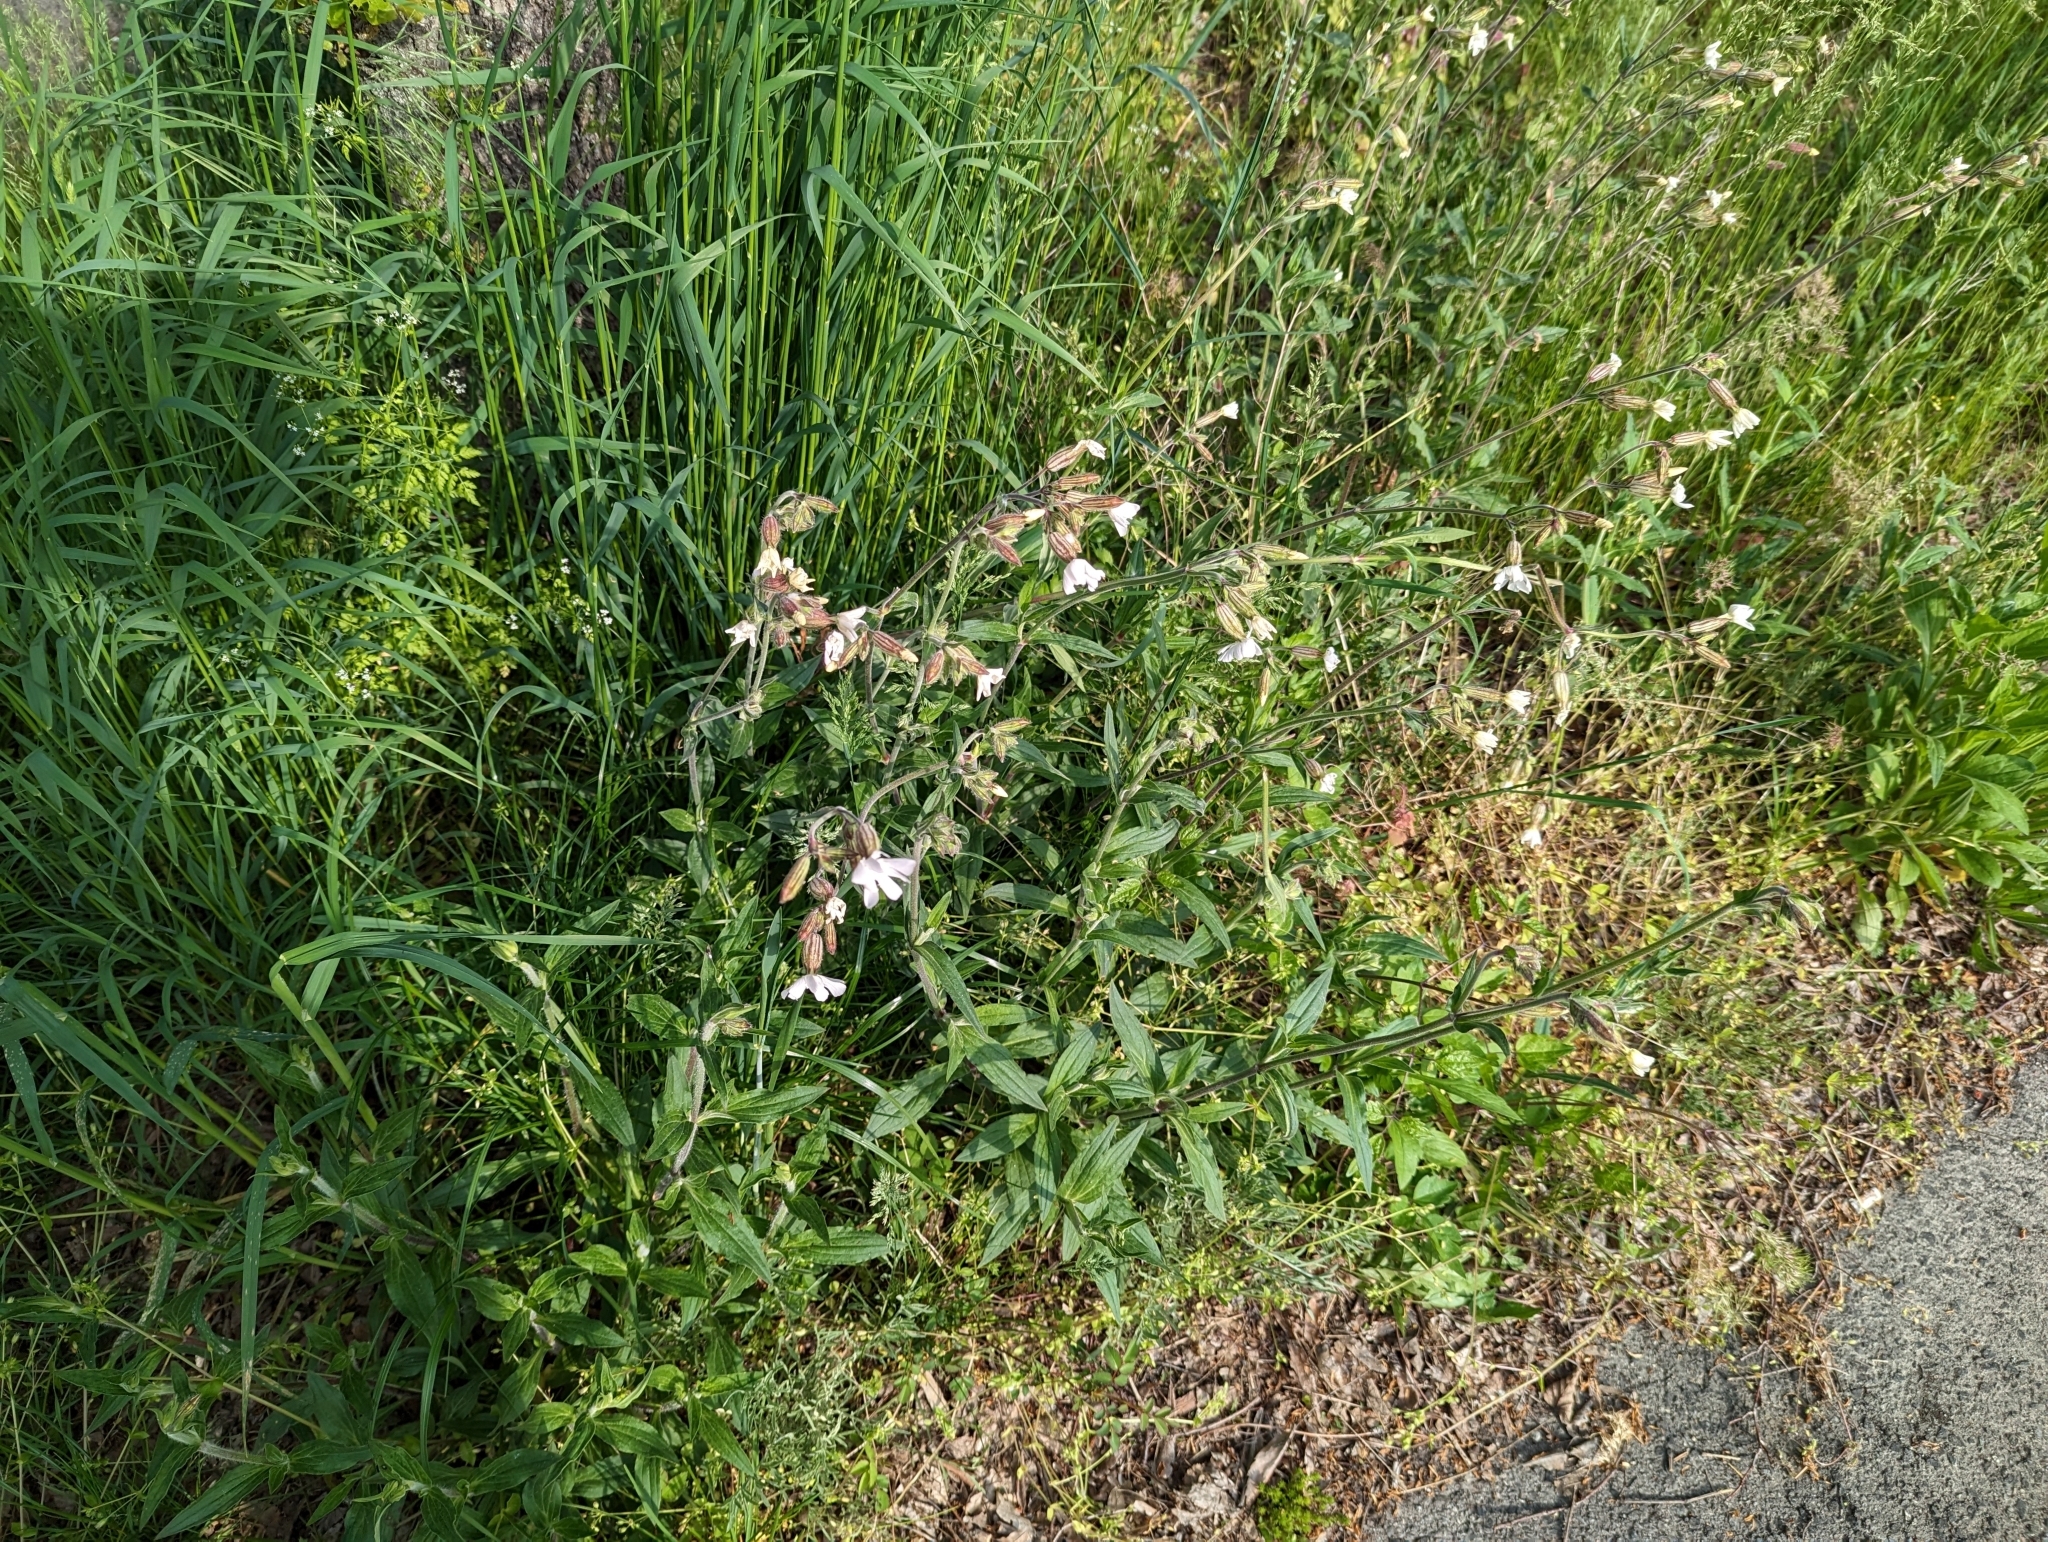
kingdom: Plantae
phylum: Tracheophyta
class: Magnoliopsida
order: Caryophyllales
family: Caryophyllaceae
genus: Silene
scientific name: Silene latifolia
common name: White campion
